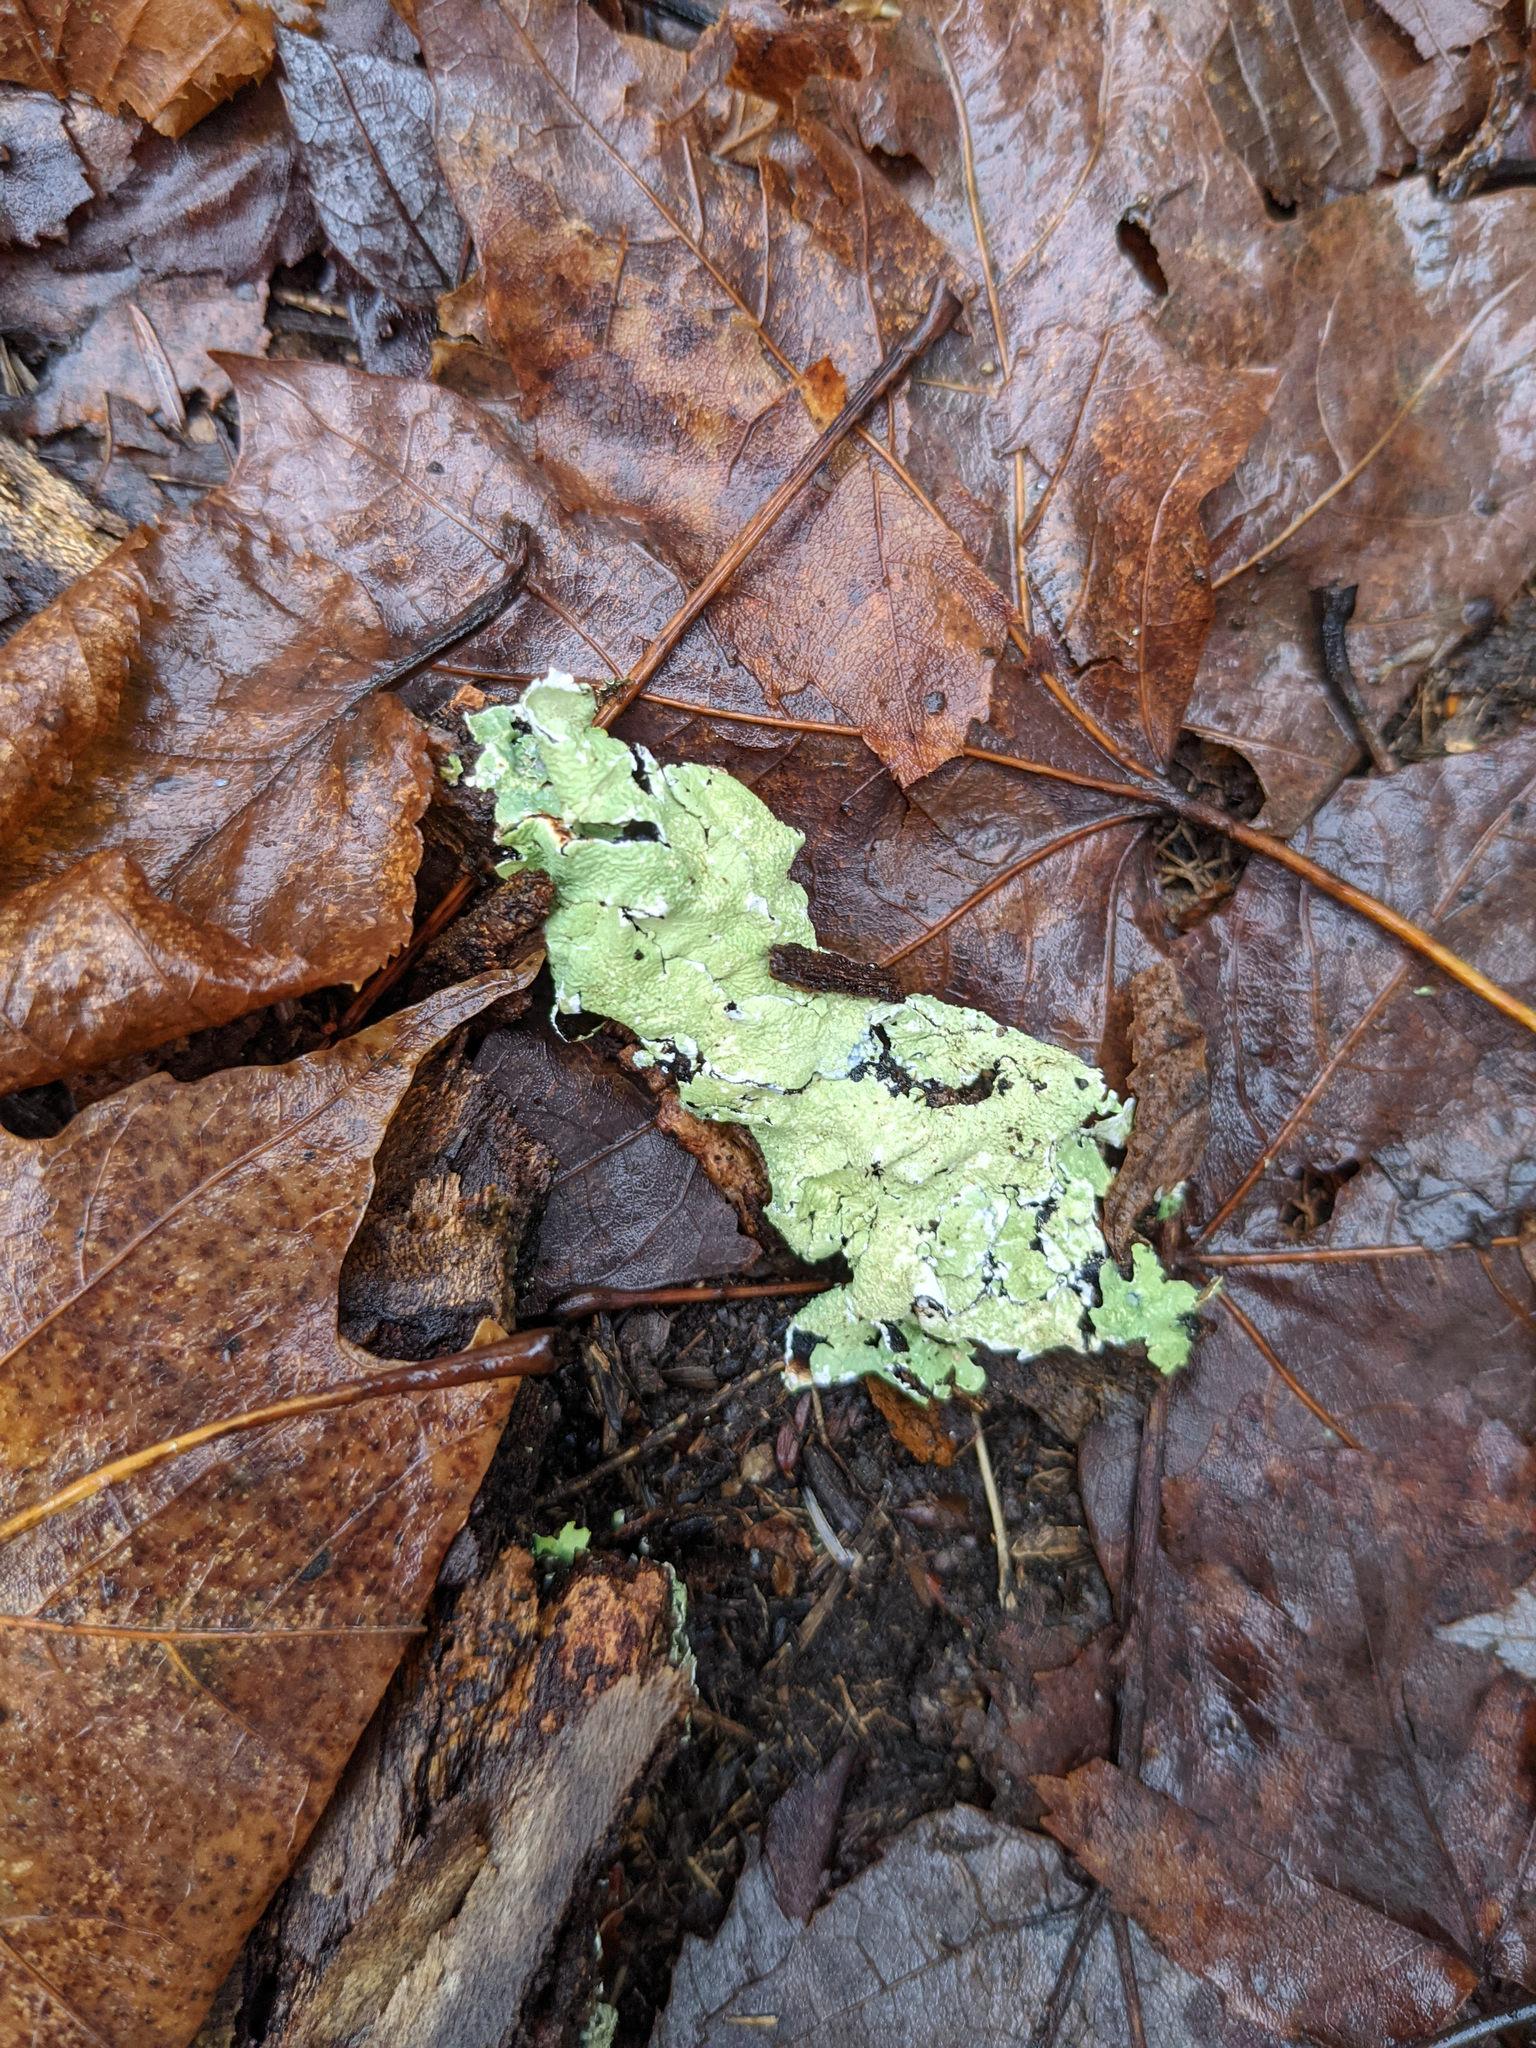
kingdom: Fungi
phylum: Ascomycota
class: Lecanoromycetes
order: Lecanorales
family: Parmeliaceae
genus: Flavoparmelia
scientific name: Flavoparmelia caperata
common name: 40-mile per hour lichen
